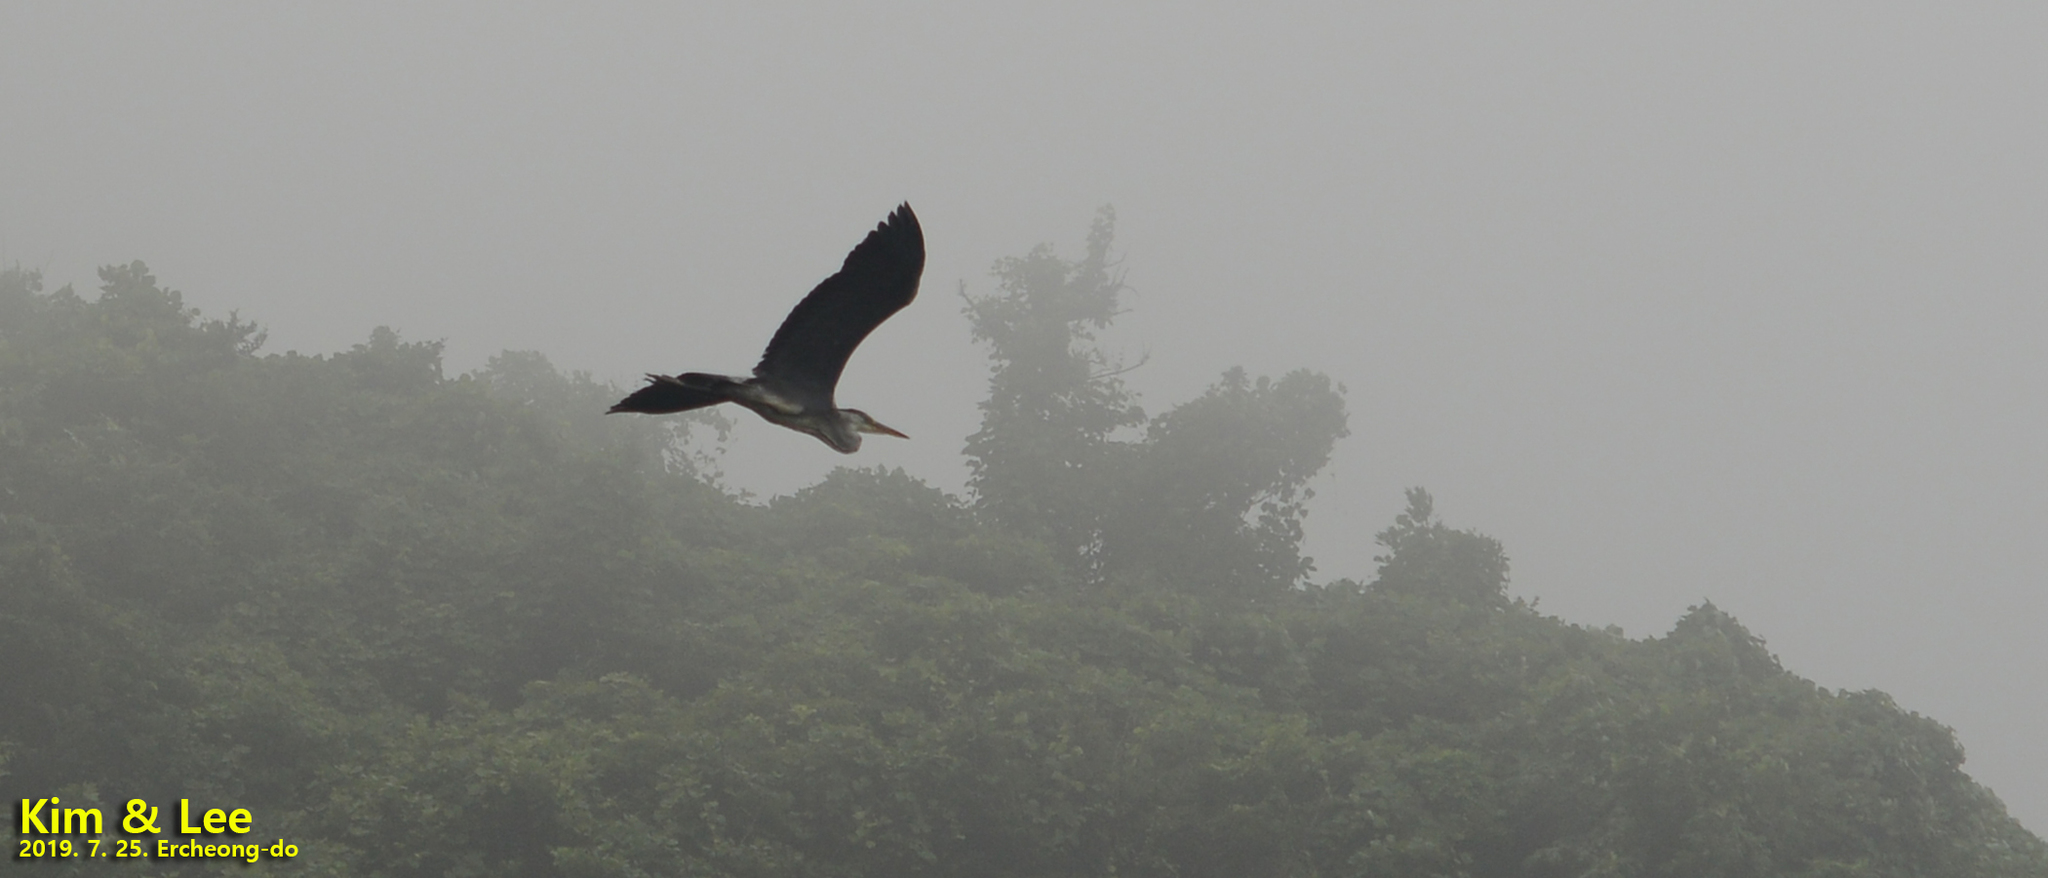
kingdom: Animalia
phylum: Chordata
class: Aves
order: Pelecaniformes
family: Ardeidae
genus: Ardea
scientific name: Ardea cinerea
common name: Grey heron
